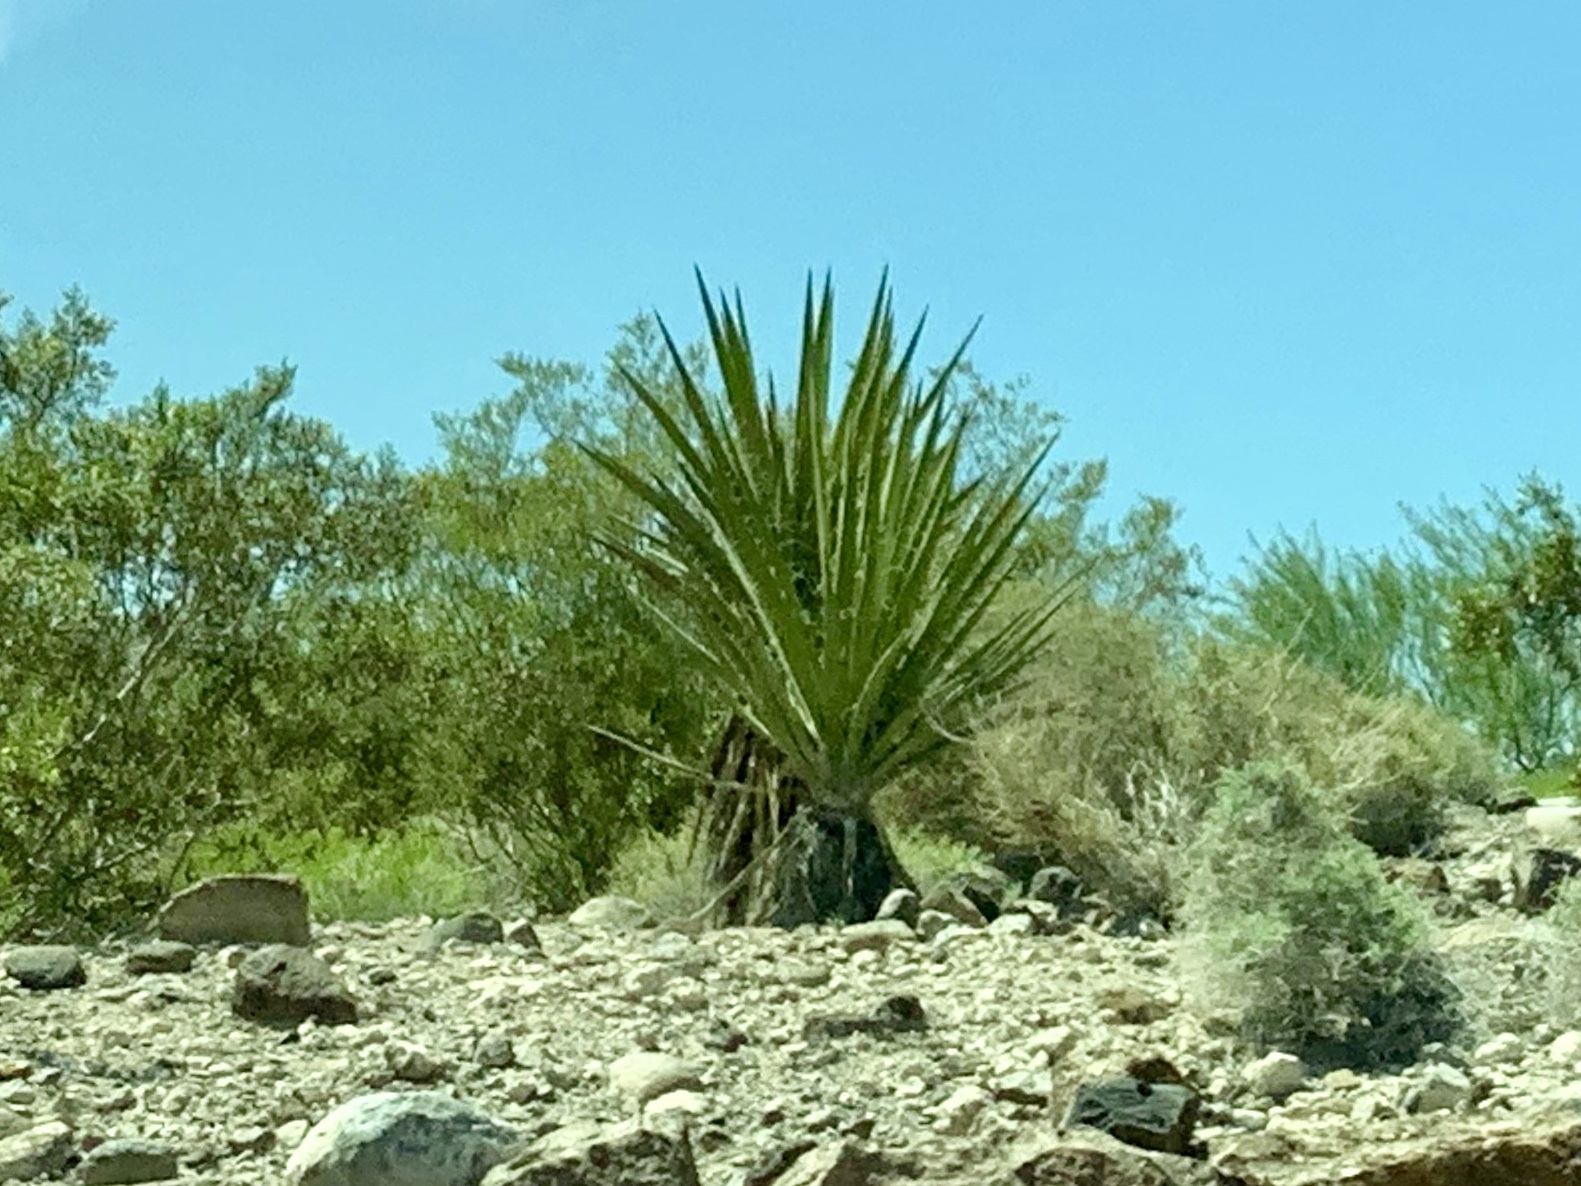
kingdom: Plantae
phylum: Tracheophyta
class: Liliopsida
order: Asparagales
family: Asparagaceae
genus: Yucca
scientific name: Yucca schidigera
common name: Mojave yucca
